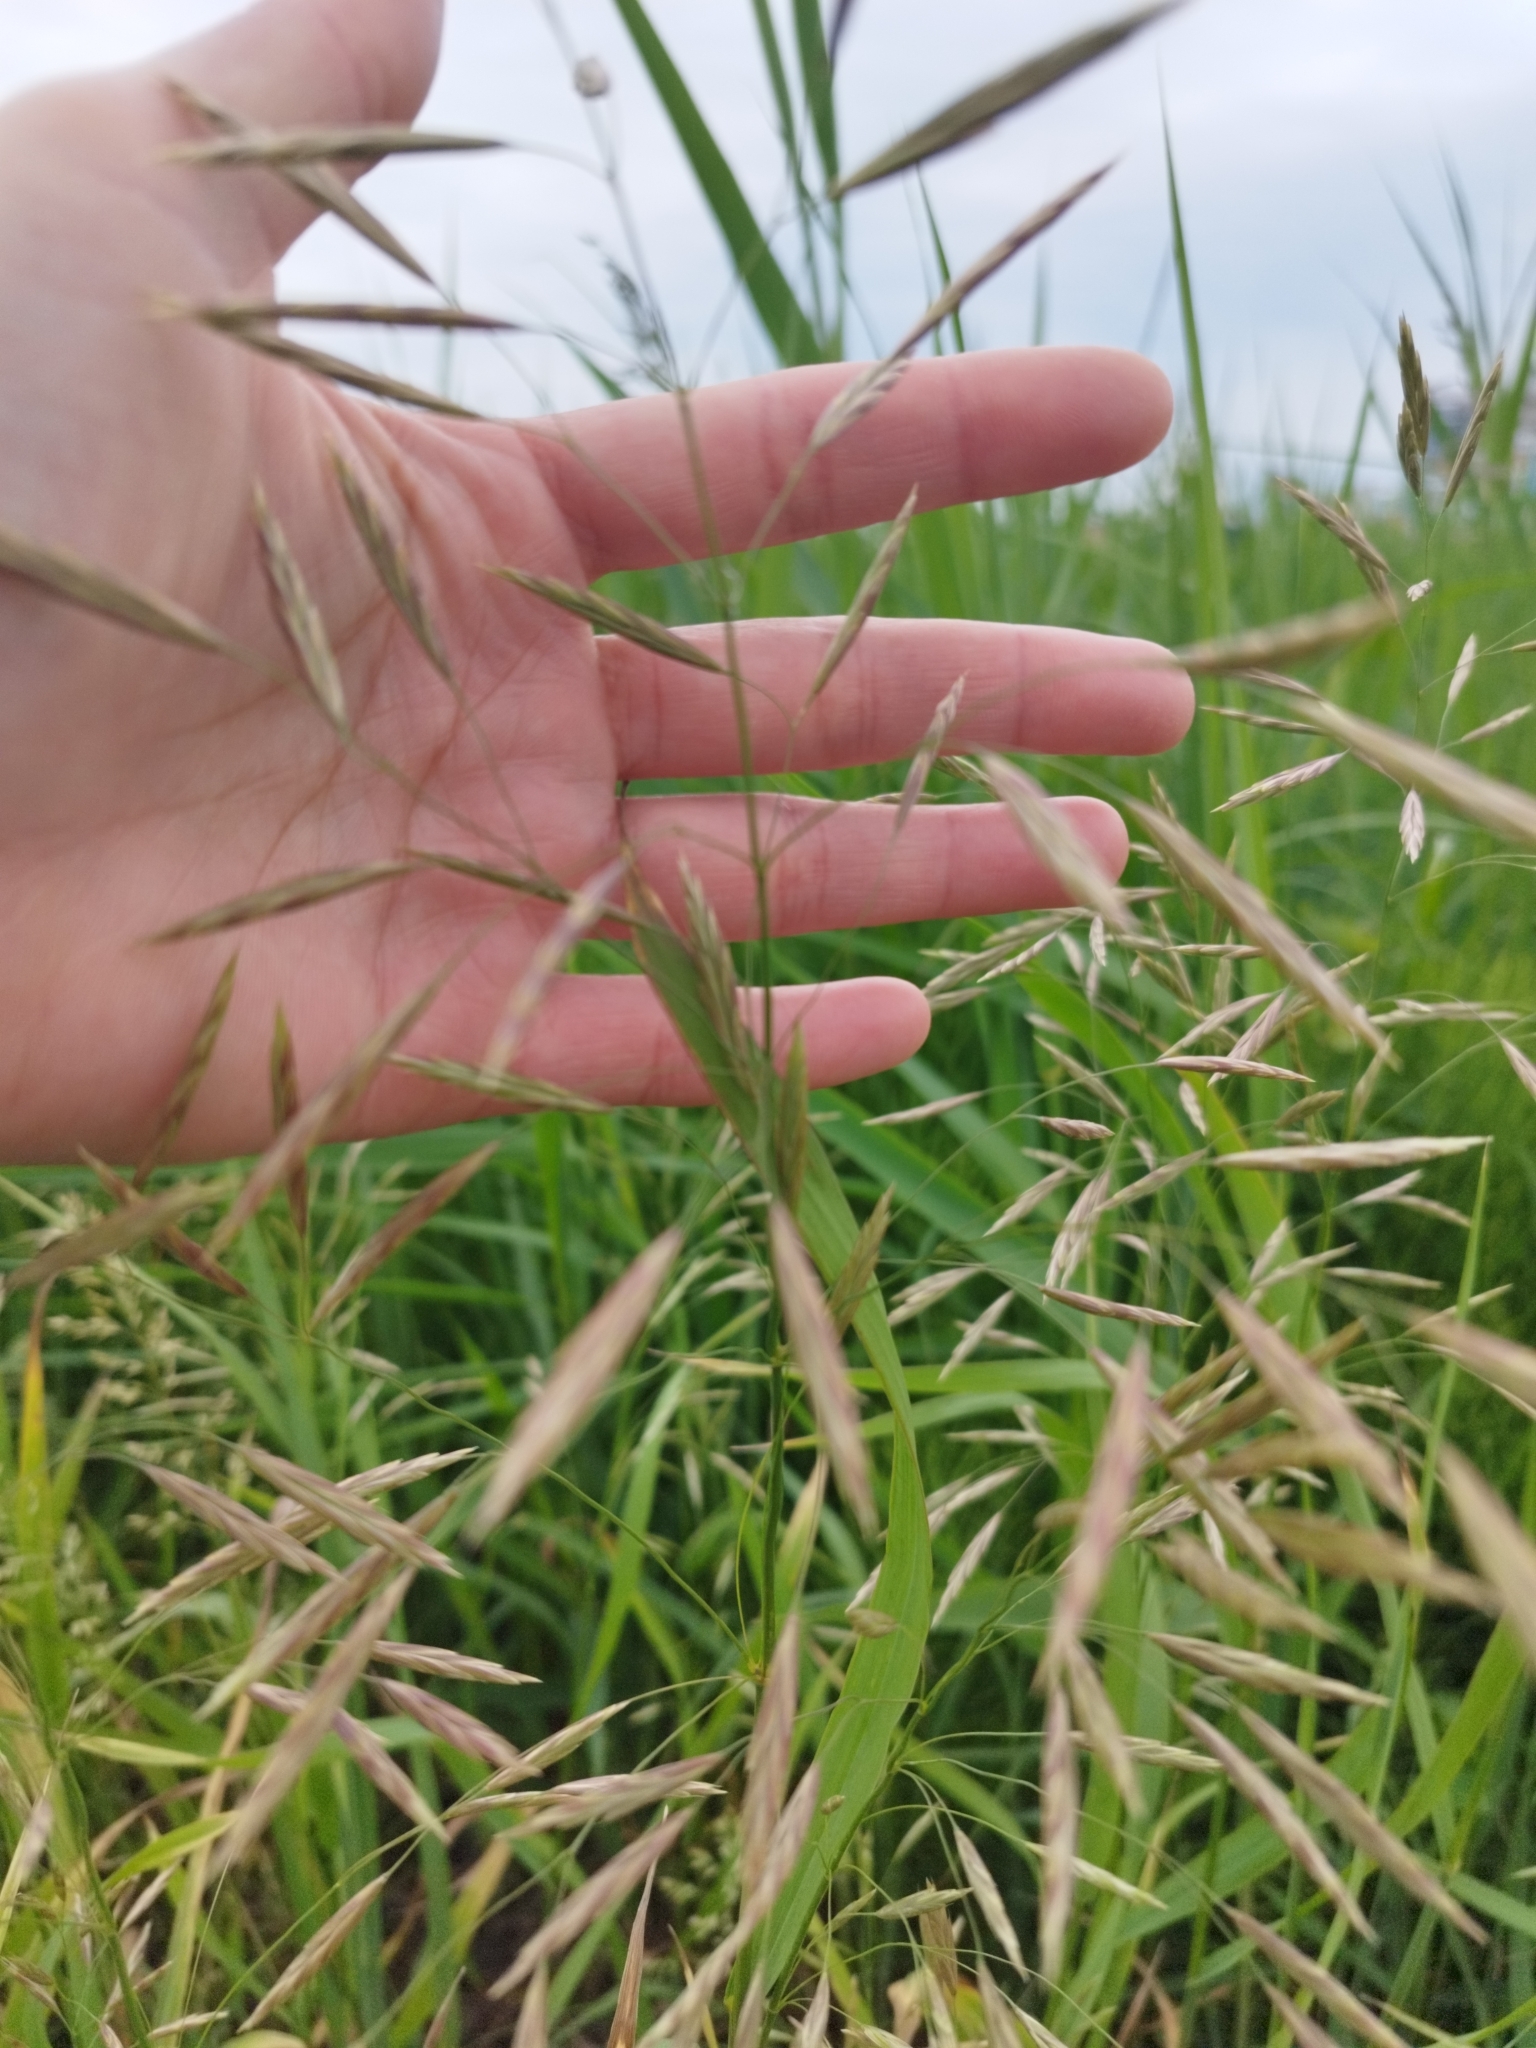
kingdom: Plantae
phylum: Tracheophyta
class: Liliopsida
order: Poales
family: Poaceae
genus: Bromus
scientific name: Bromus inermis
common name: Smooth brome
